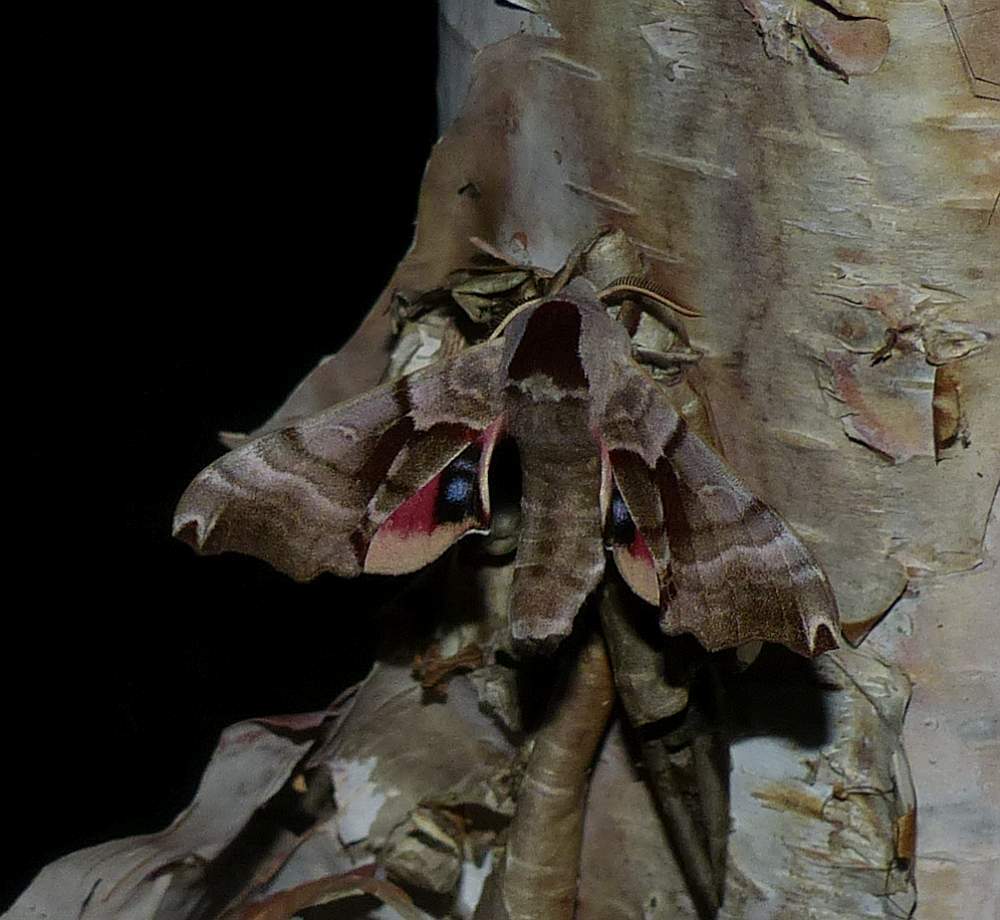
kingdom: Animalia
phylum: Arthropoda
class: Insecta
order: Lepidoptera
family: Sphingidae
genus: Smerinthus
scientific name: Smerinthus jamaicensis
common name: Twin spotted sphinx
